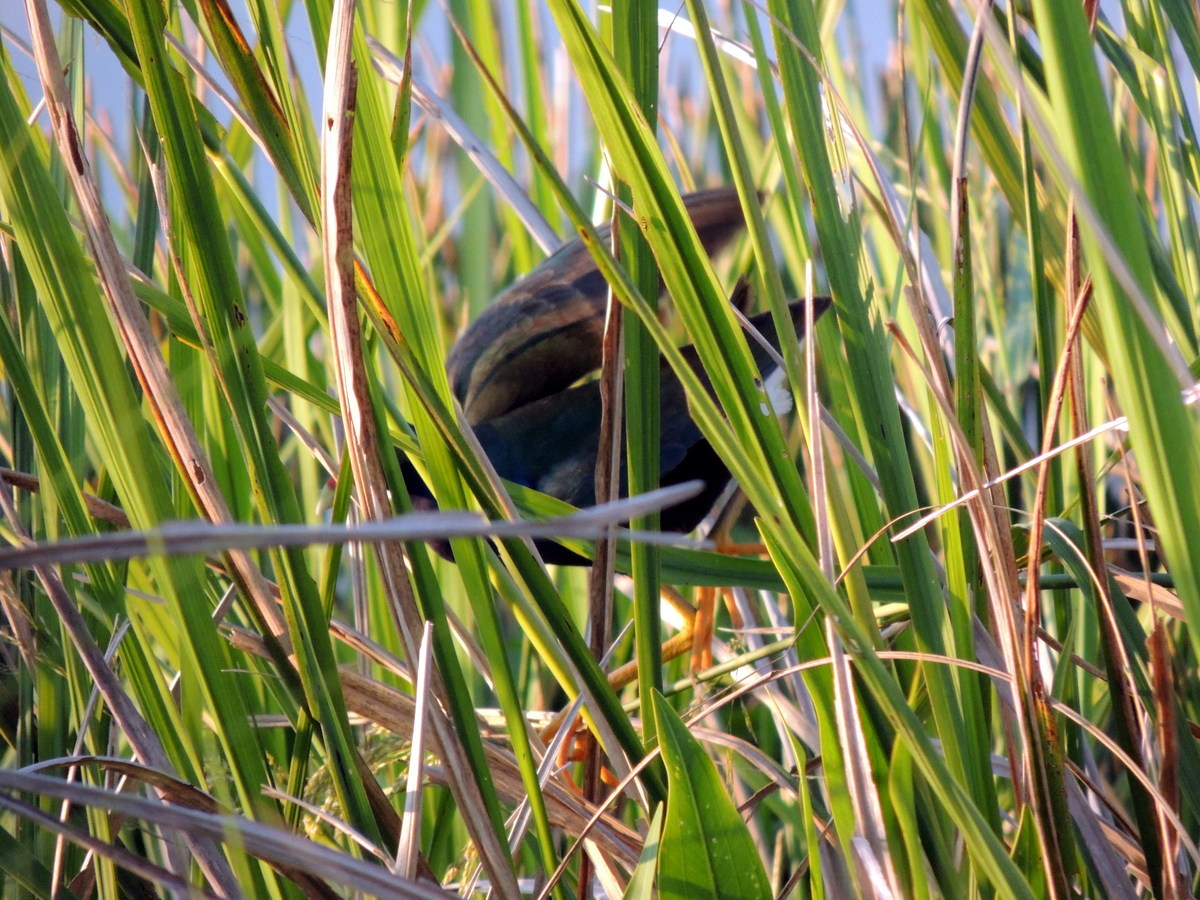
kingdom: Animalia
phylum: Chordata
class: Aves
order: Gruiformes
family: Rallidae
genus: Porphyrio
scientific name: Porphyrio martinica
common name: Purple gallinule
